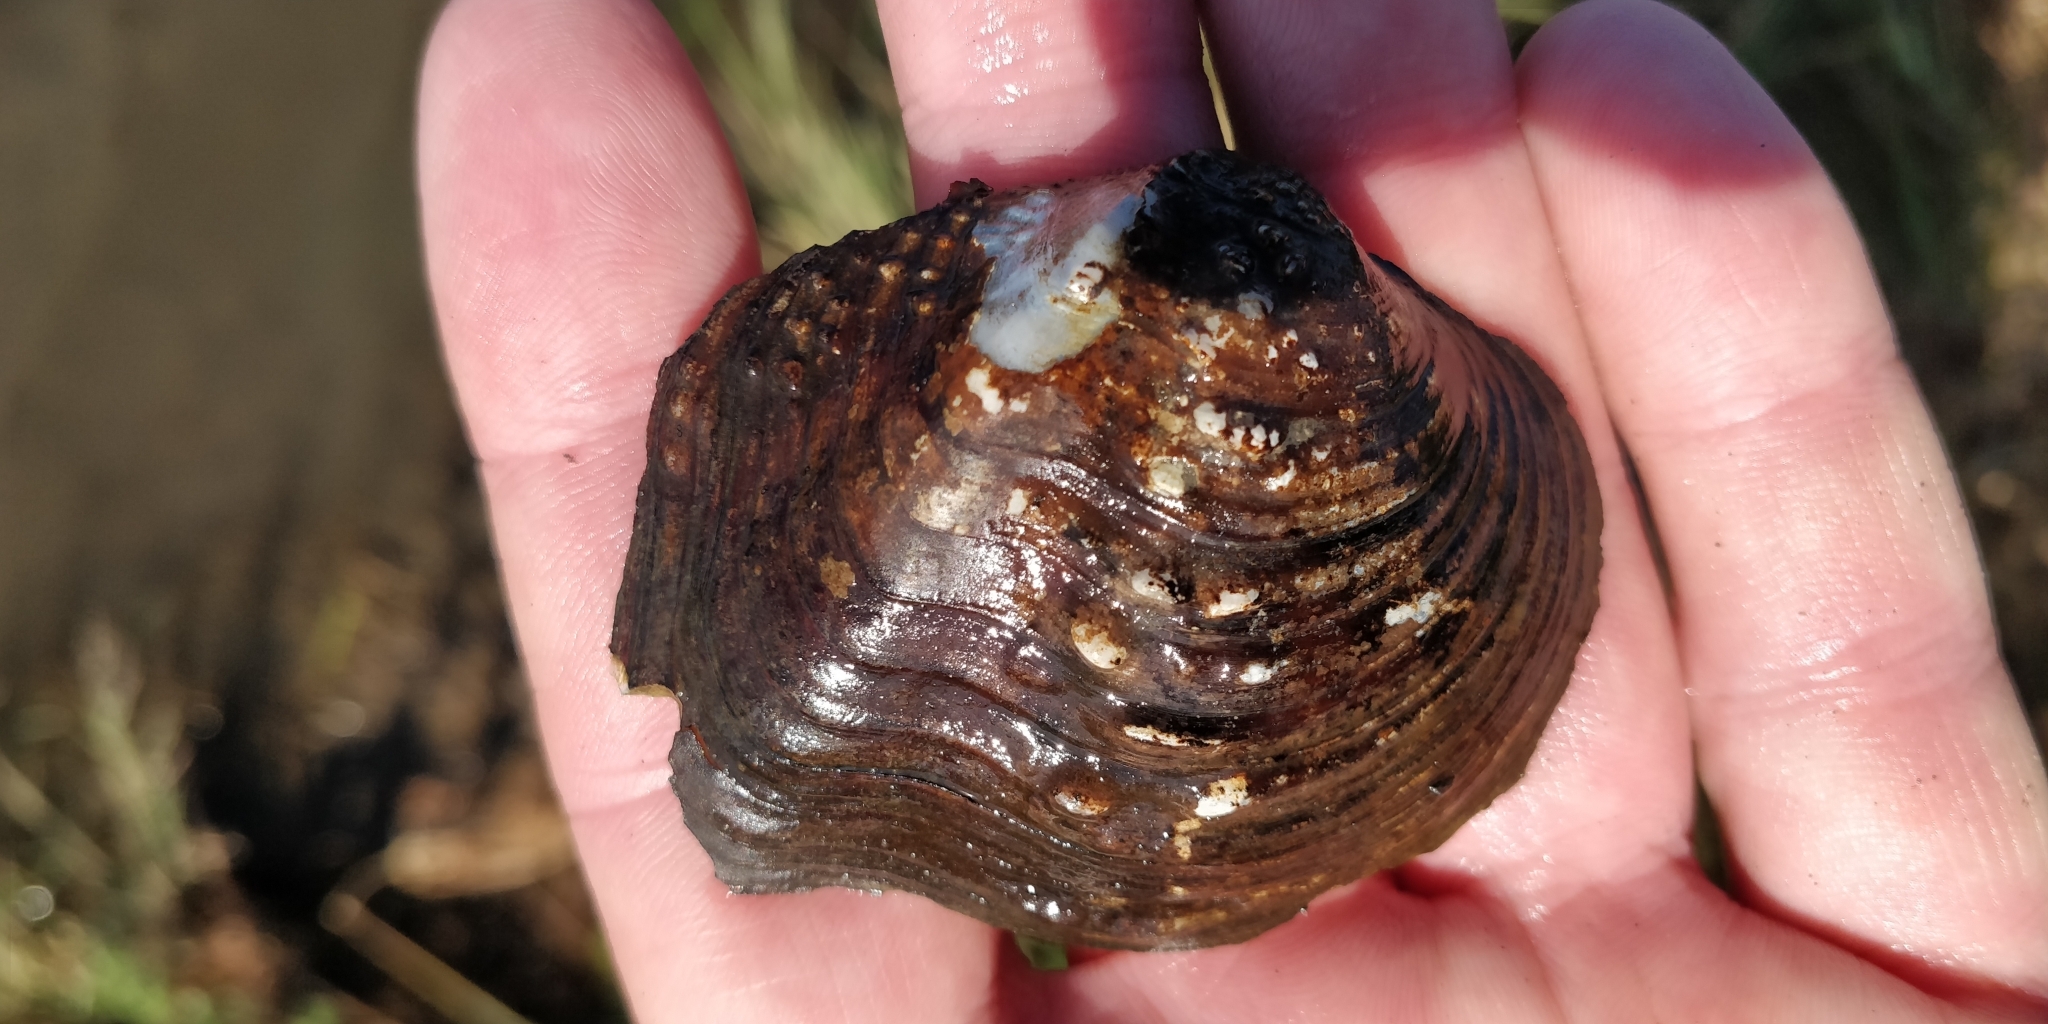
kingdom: Animalia
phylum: Mollusca
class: Bivalvia
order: Unionida
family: Unionidae
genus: Quadrula
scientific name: Quadrula quadrula
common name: Mapleleaf
